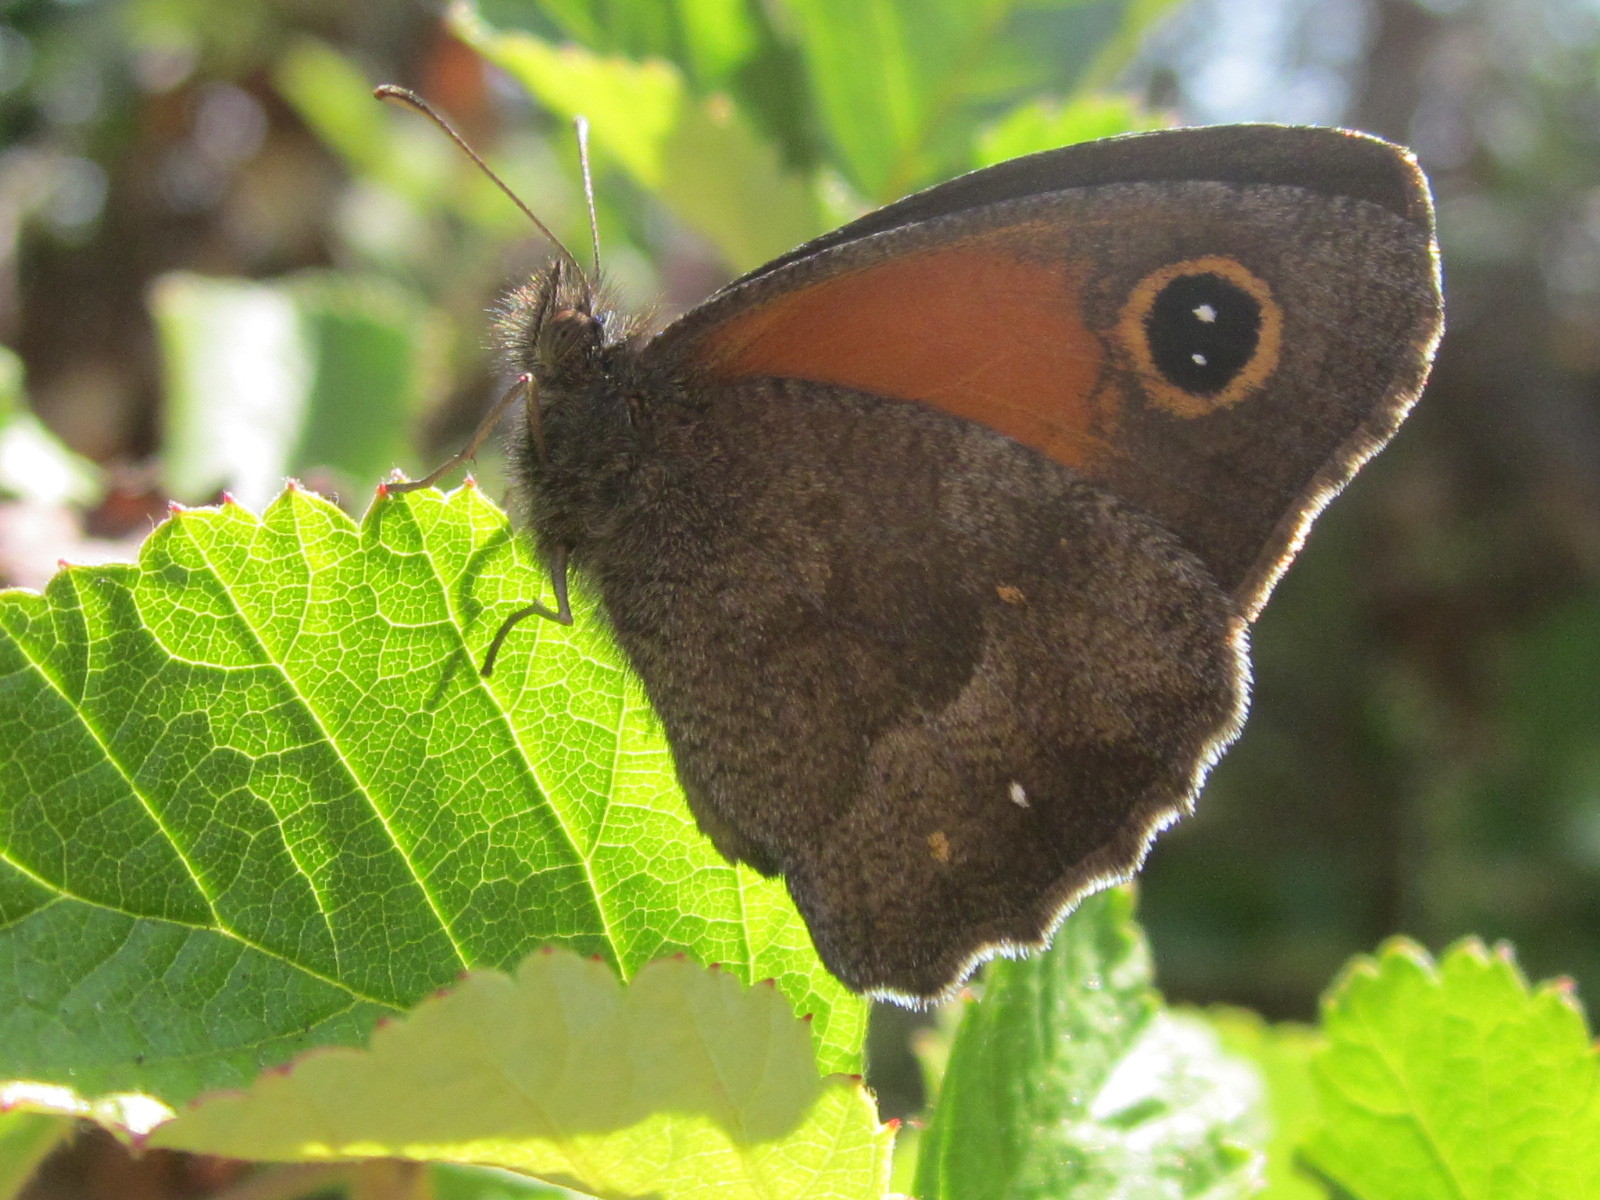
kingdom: Animalia
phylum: Arthropoda
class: Insecta
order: Lepidoptera
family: Nymphalidae
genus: Auca
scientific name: Auca barrosi
